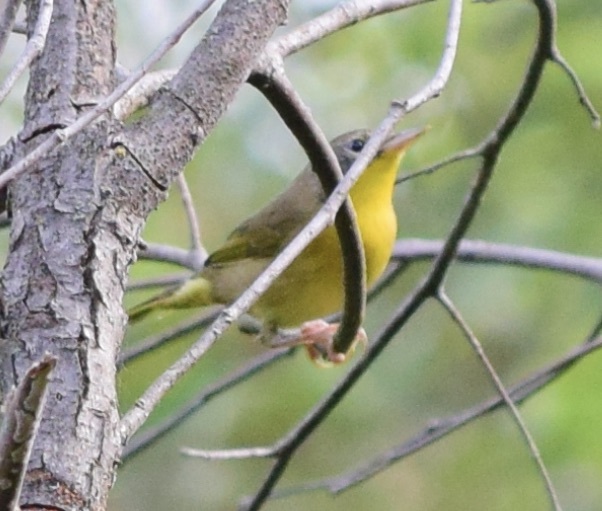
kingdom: Animalia
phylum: Chordata
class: Aves
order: Passeriformes
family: Parulidae
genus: Geothlypis
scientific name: Geothlypis trichas
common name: Common yellowthroat
